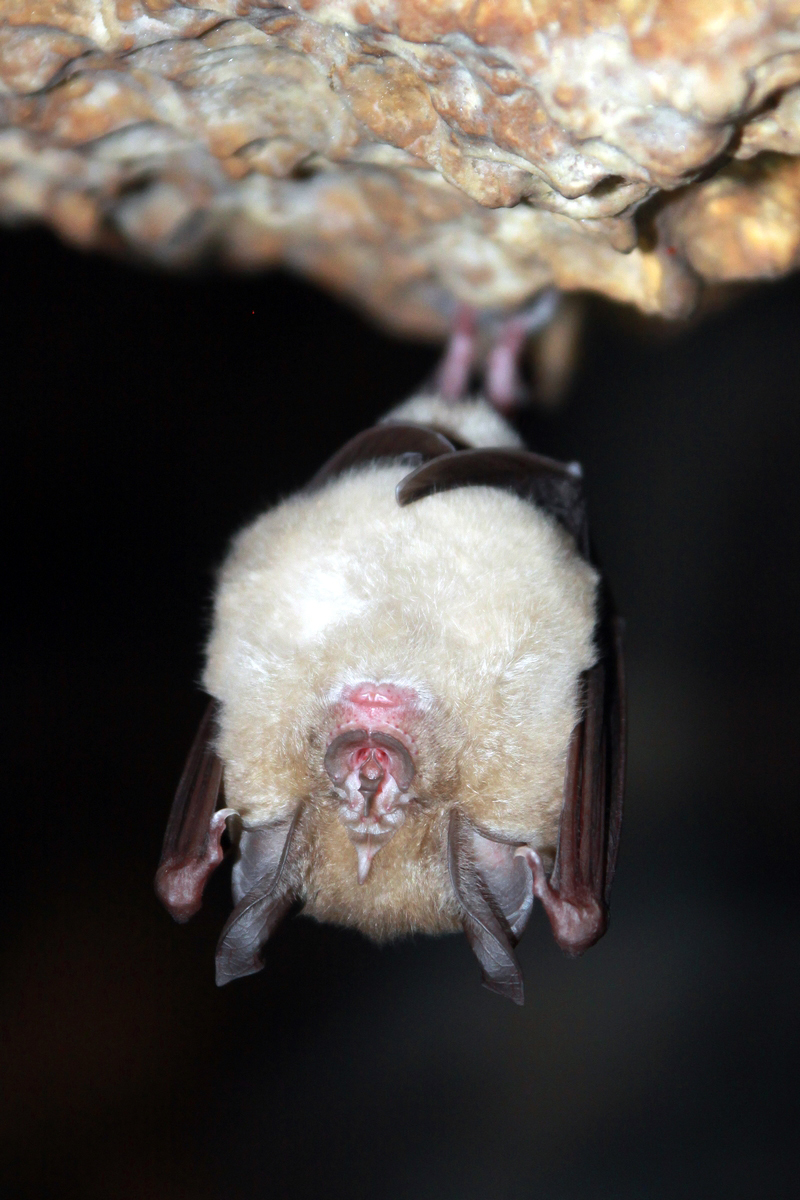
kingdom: Animalia
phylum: Chordata
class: Mammalia
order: Chiroptera
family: Rhinolophidae
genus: Rhinolophus
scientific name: Rhinolophus ferrumequinum
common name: Greater horseshoe bat
